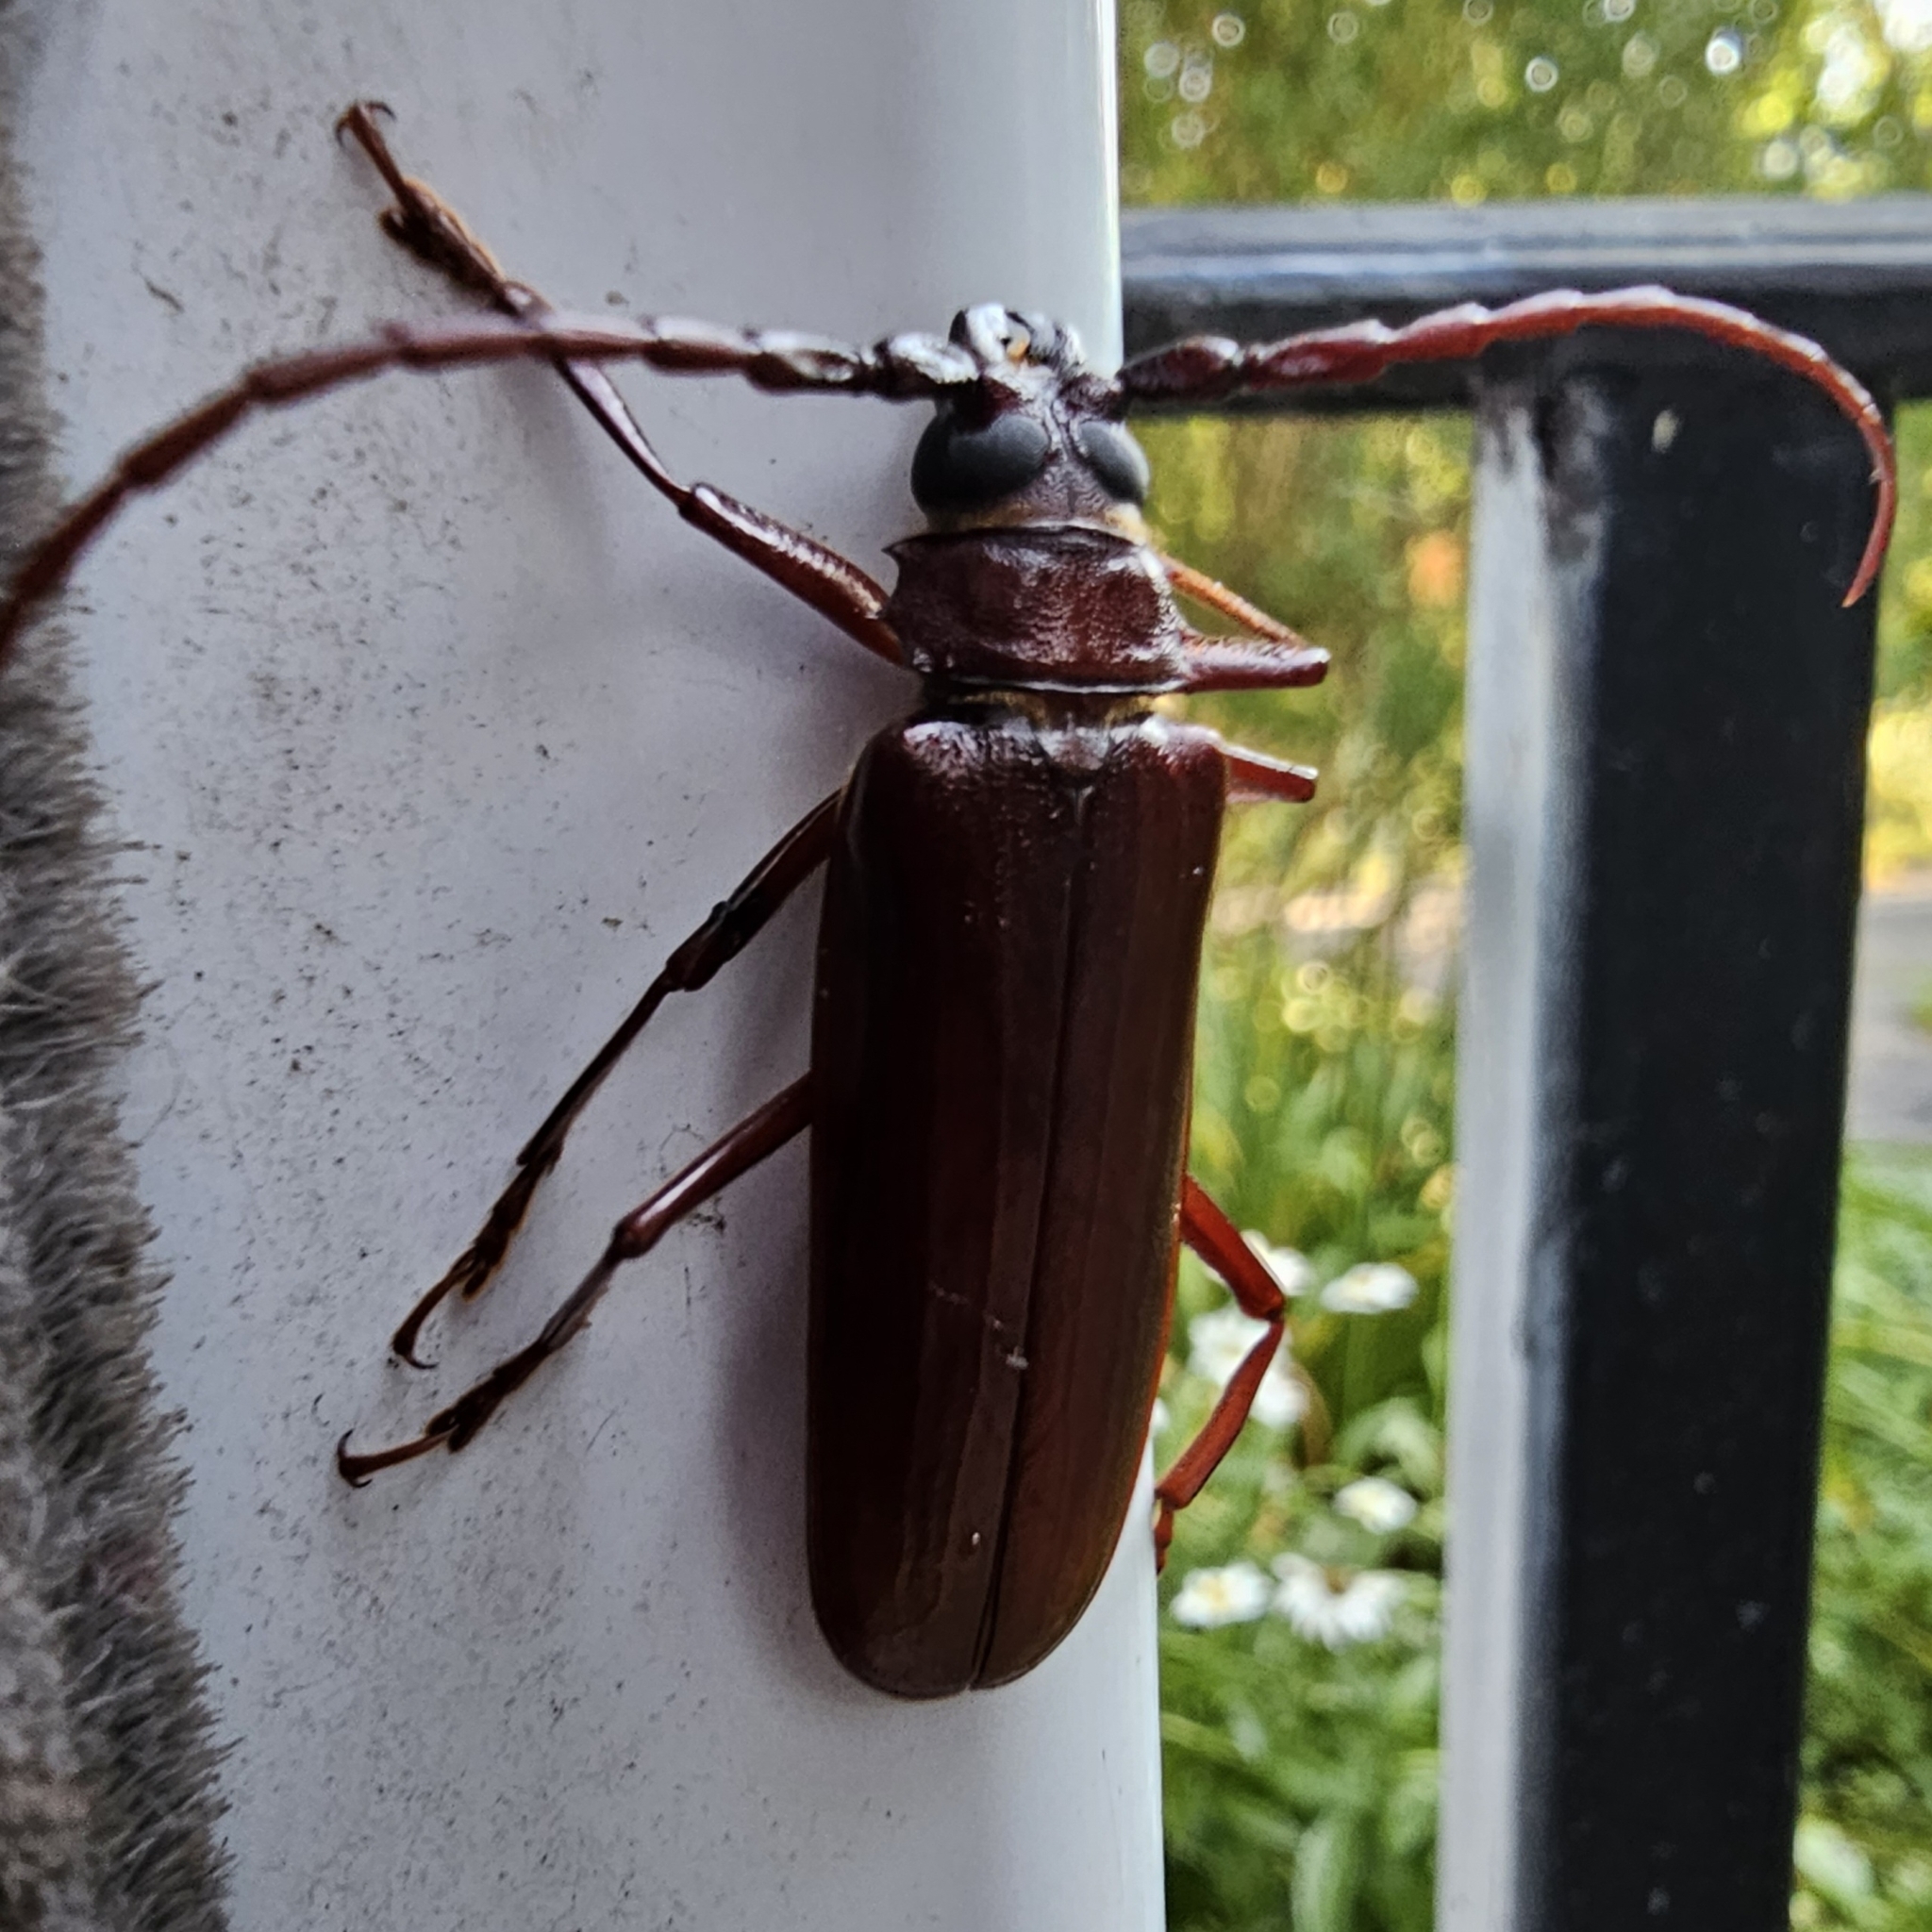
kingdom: Animalia
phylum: Arthropoda
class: Insecta
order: Coleoptera
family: Cerambycidae
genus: Orthosoma
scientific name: Orthosoma brunneum
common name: Brown prionid beetle
